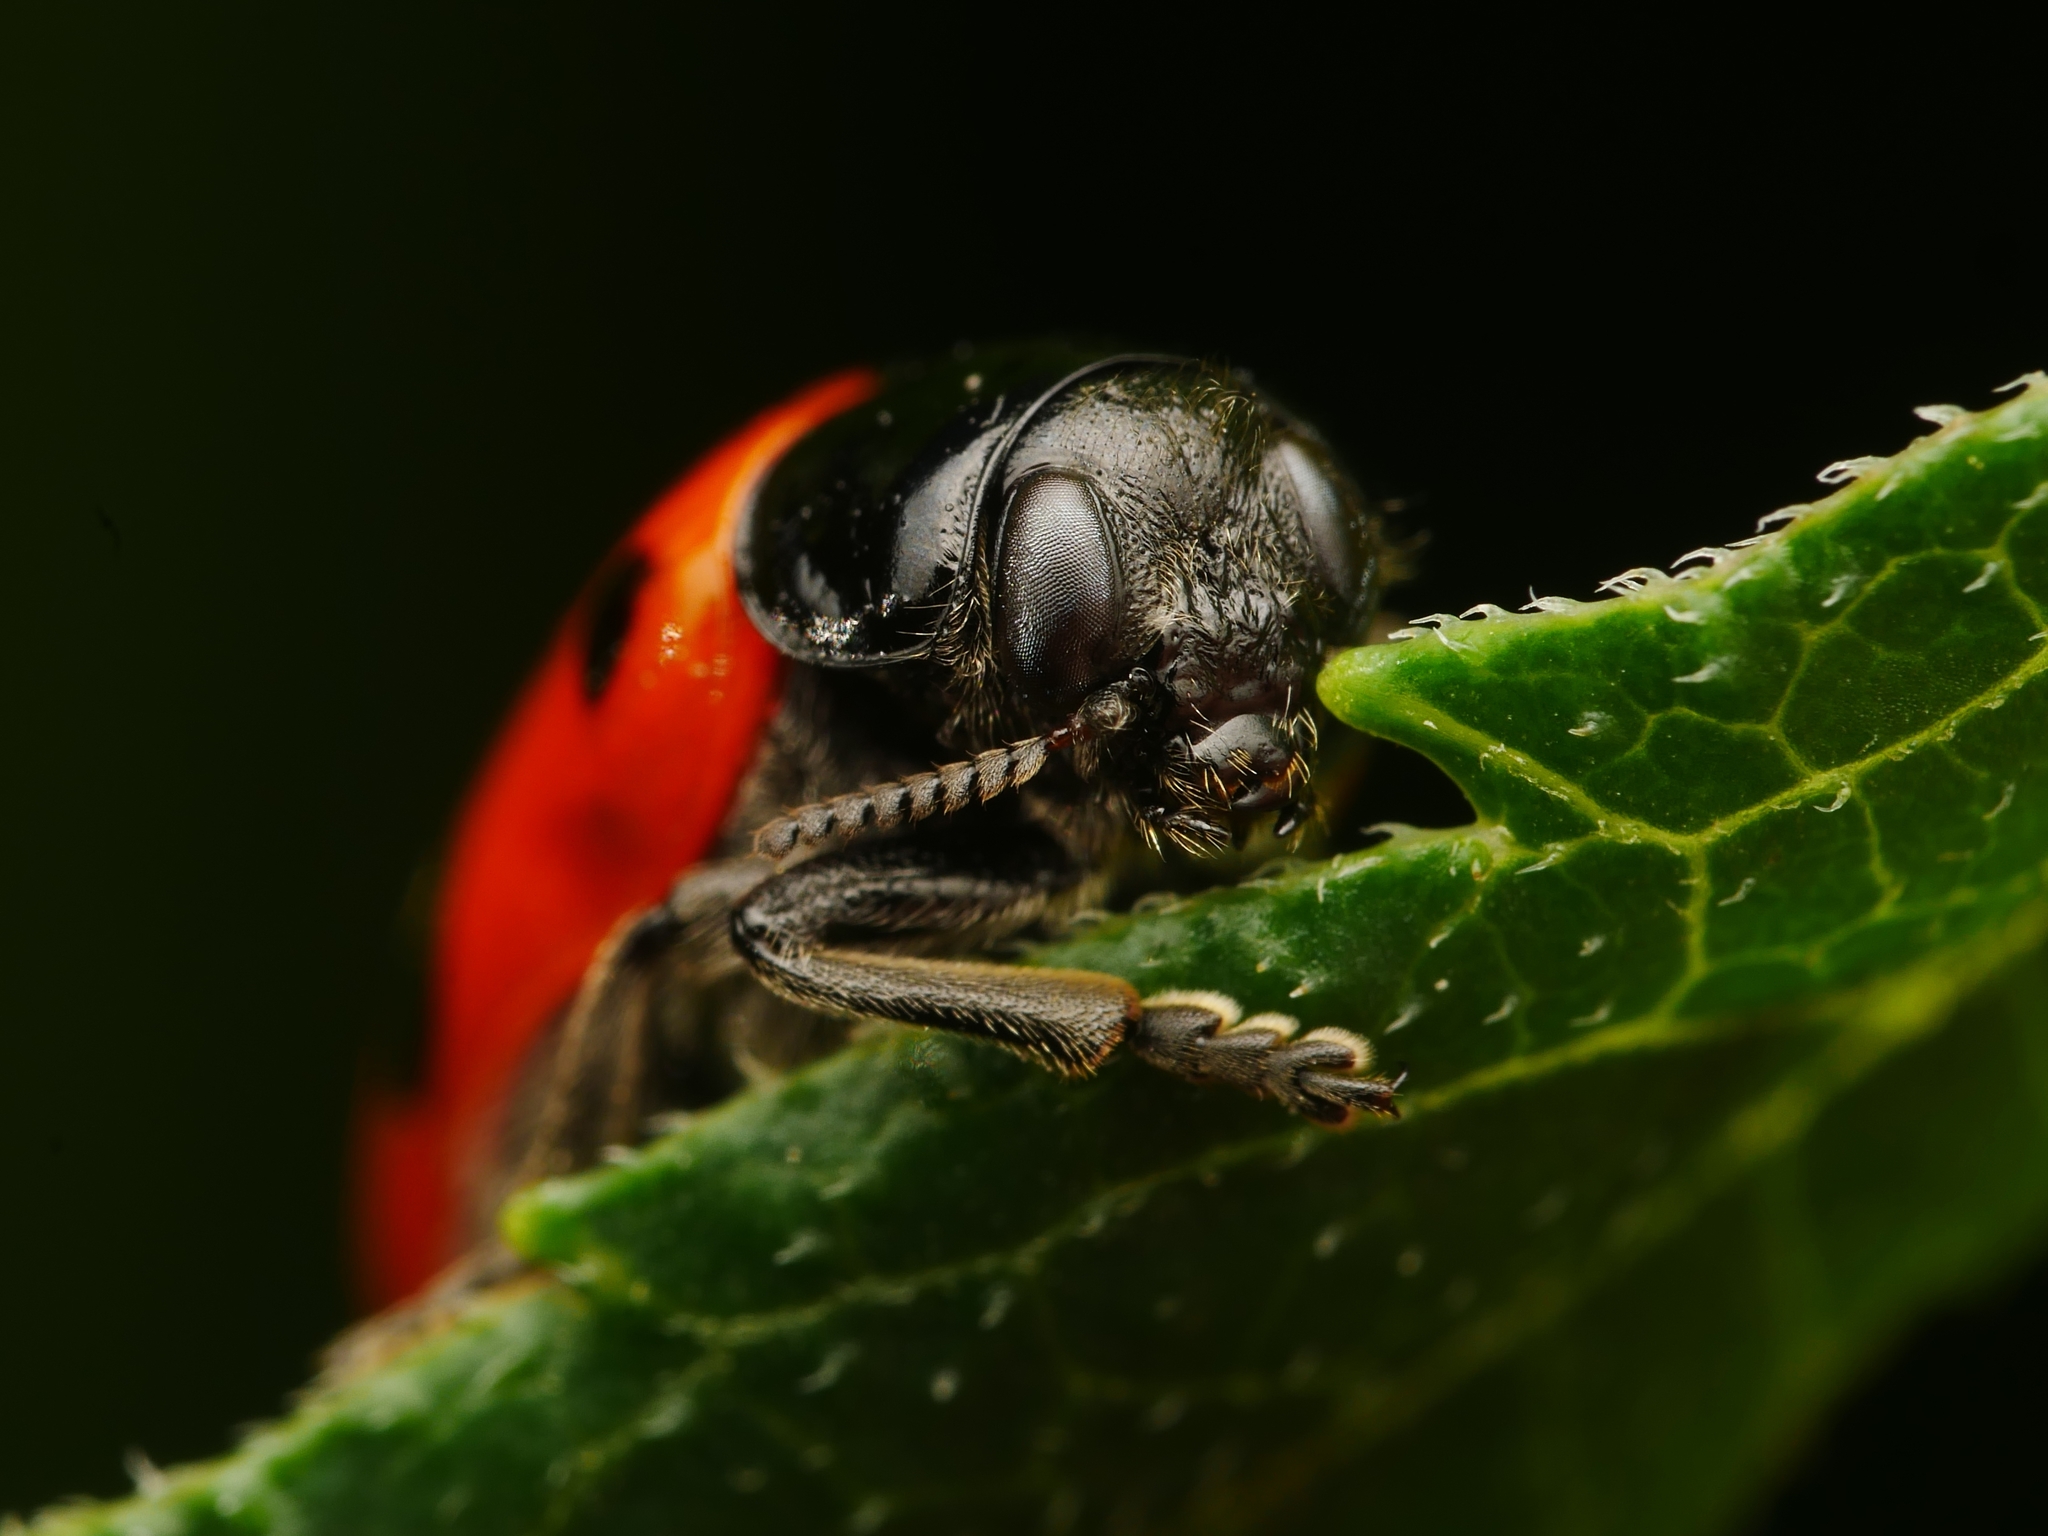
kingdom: Animalia
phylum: Arthropoda
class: Insecta
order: Coleoptera
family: Chrysomelidae
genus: Clytra
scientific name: Clytra laeviuscula
